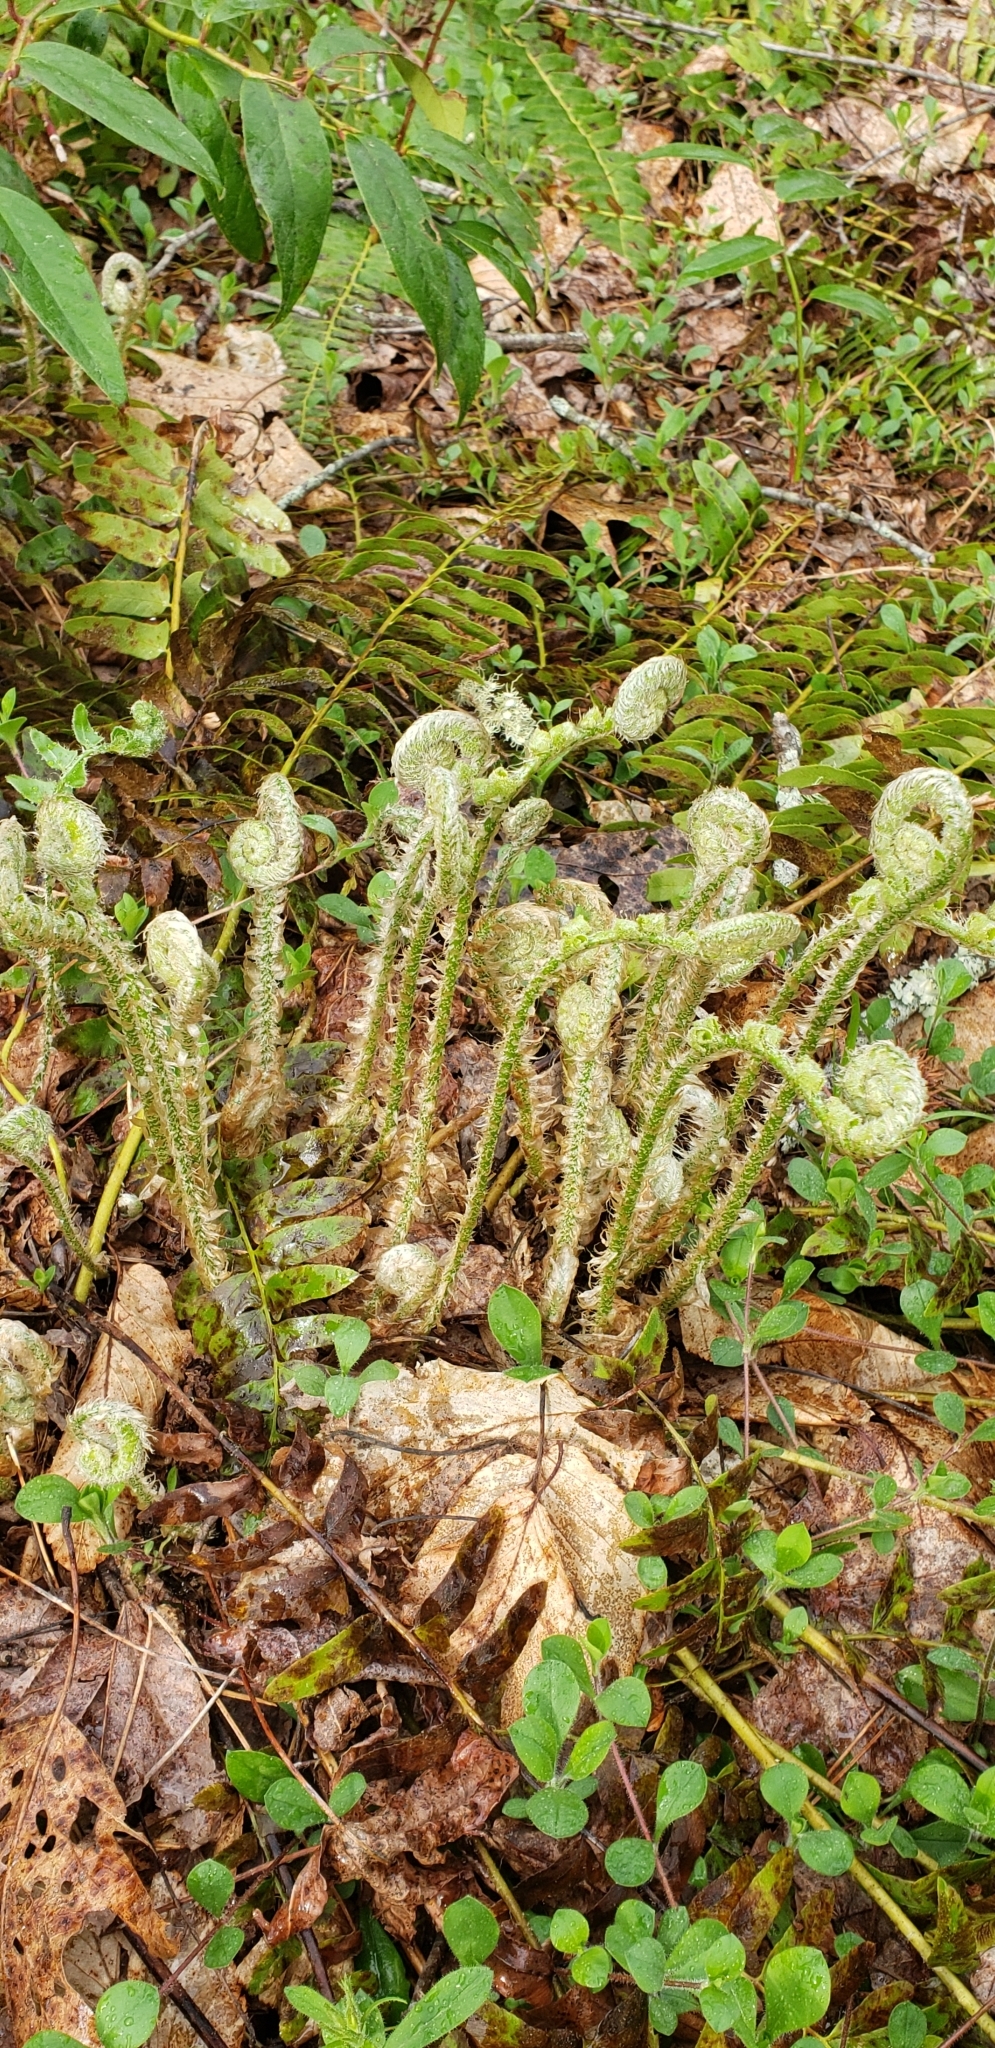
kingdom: Plantae
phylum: Tracheophyta
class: Polypodiopsida
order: Polypodiales
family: Dryopteridaceae
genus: Polystichum
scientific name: Polystichum acrostichoides
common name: Christmas fern
